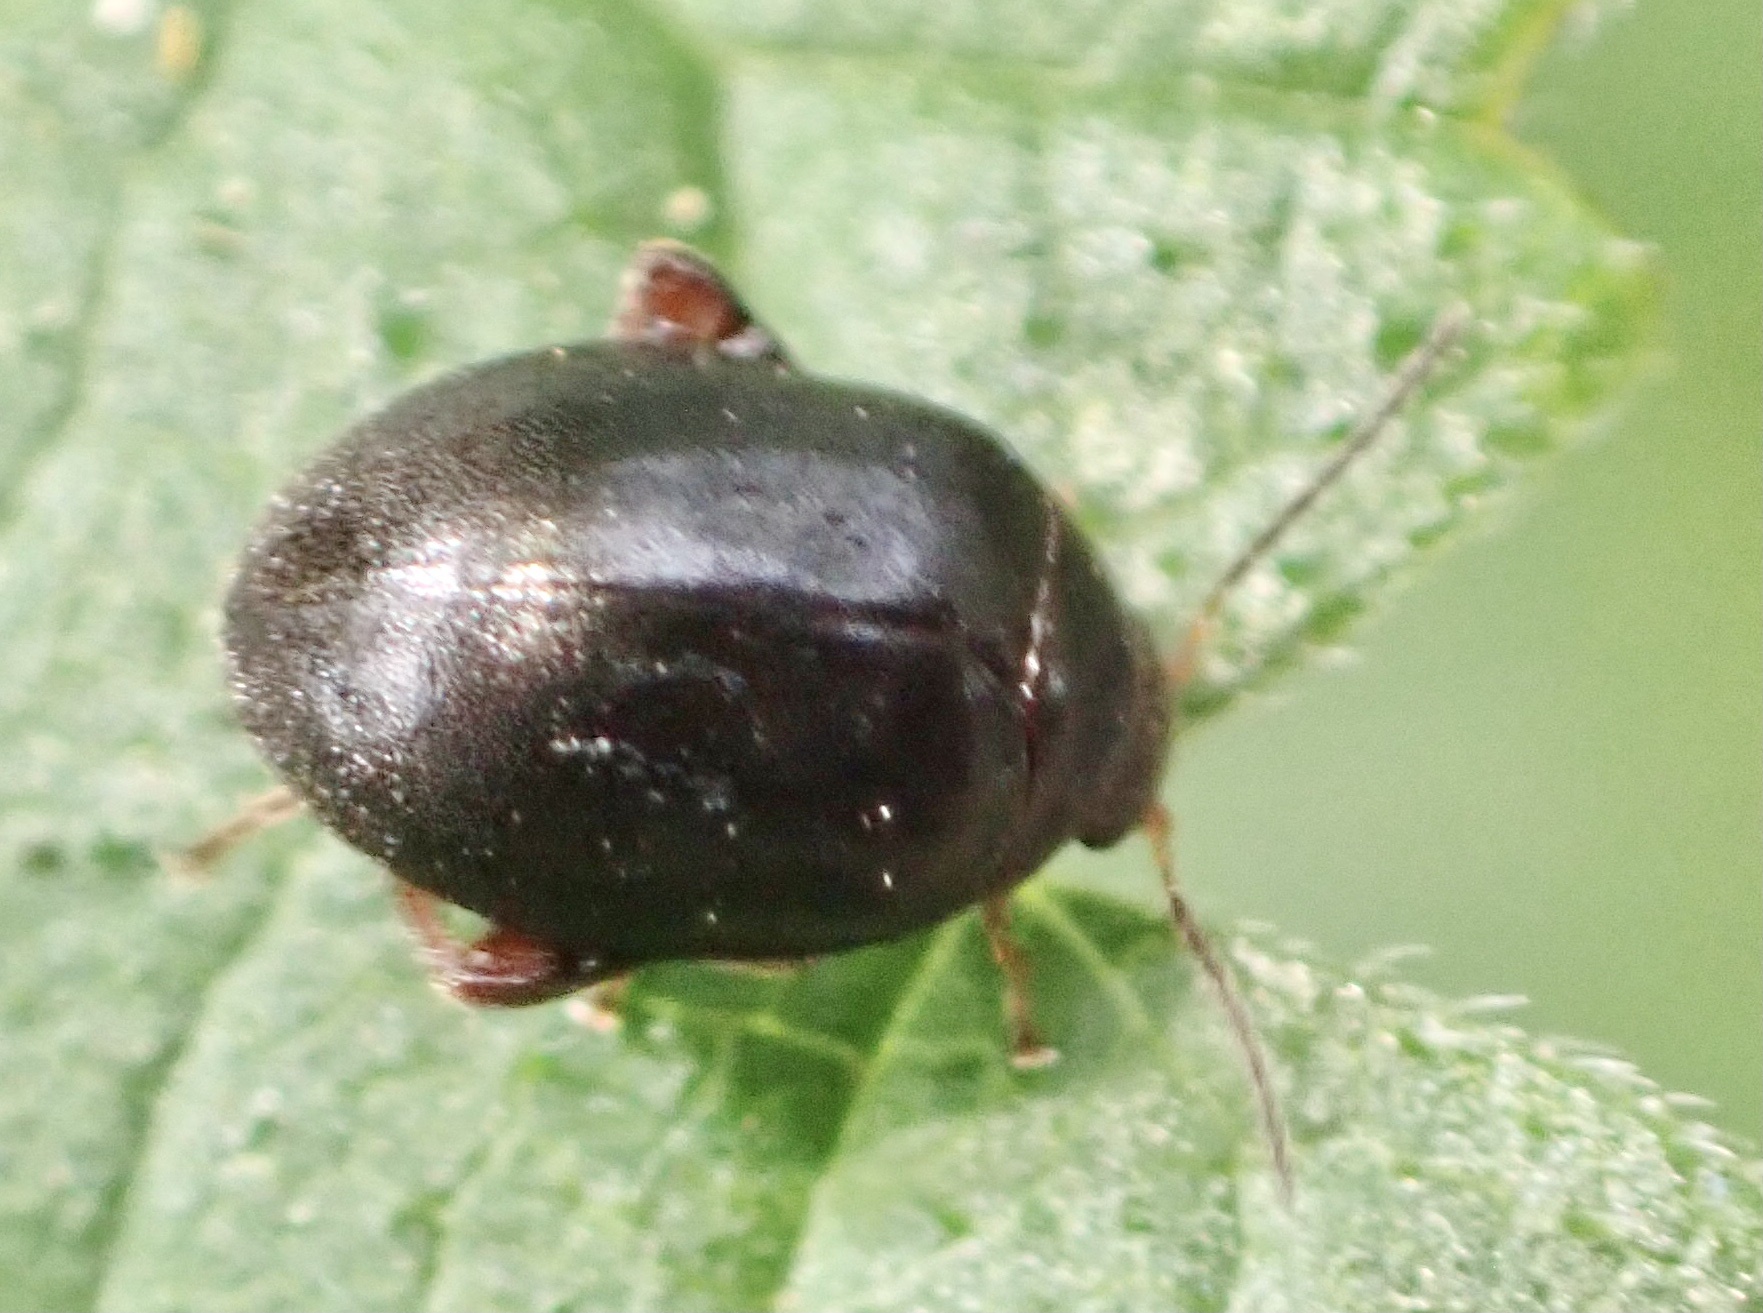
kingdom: Animalia
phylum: Arthropoda
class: Insecta
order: Coleoptera
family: Scirtidae
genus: Scirtes
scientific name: Scirtes hemisphaericus
